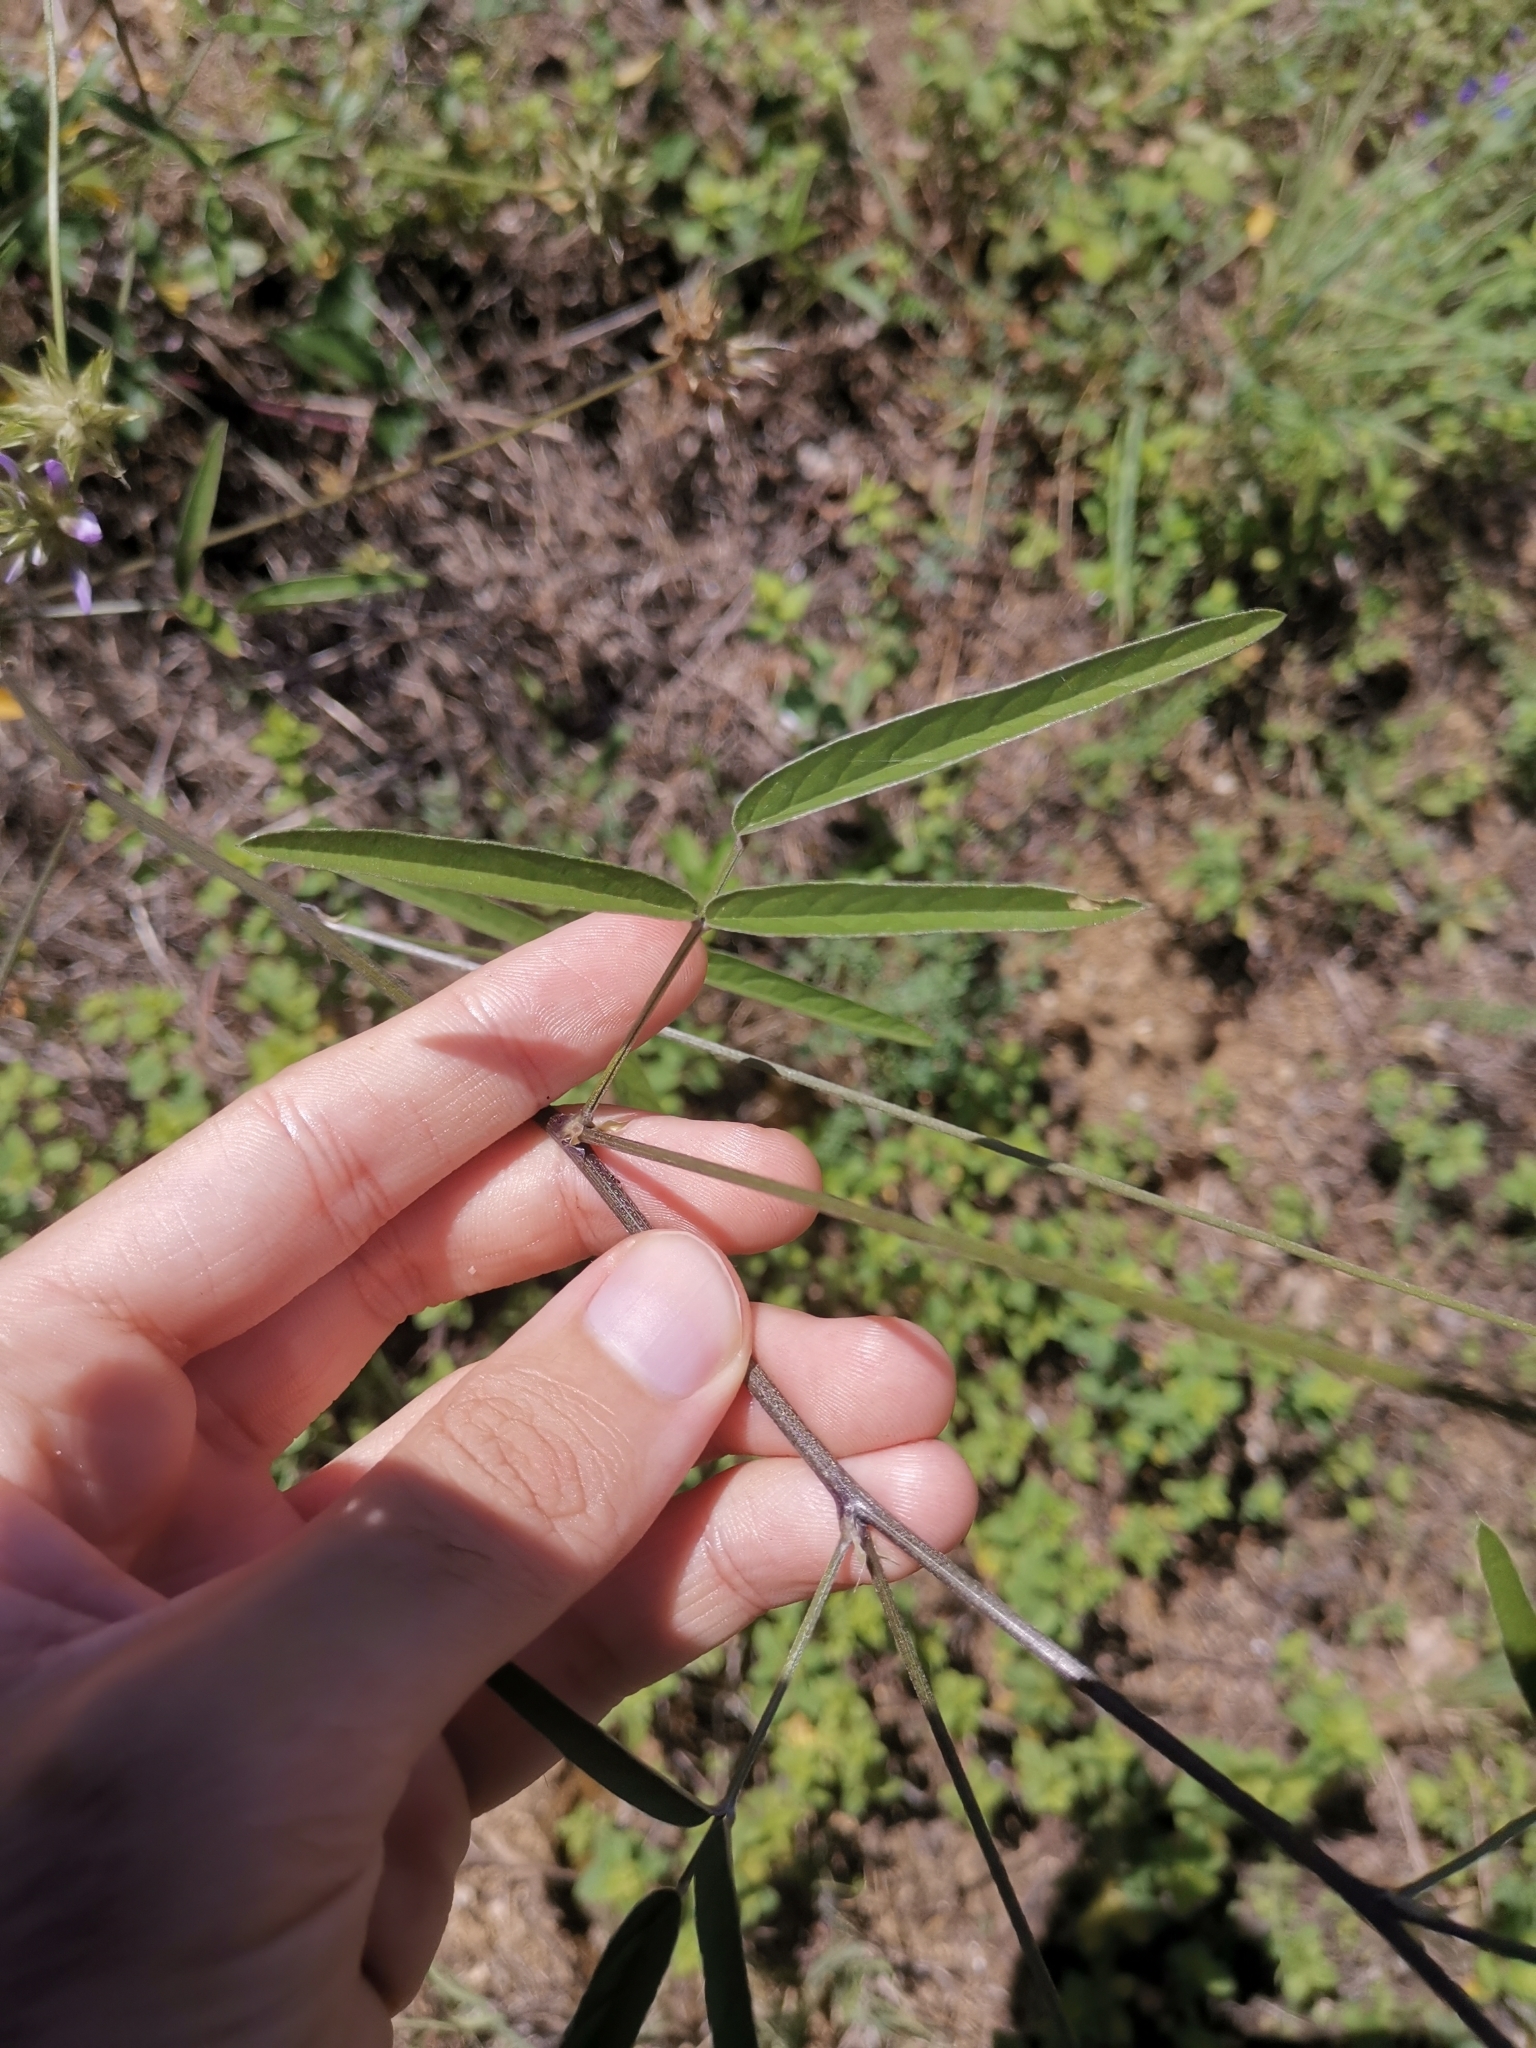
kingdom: Plantae
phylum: Tracheophyta
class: Magnoliopsida
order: Fabales
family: Fabaceae
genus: Bituminaria
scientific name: Bituminaria bituminosa
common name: Arabian pea
